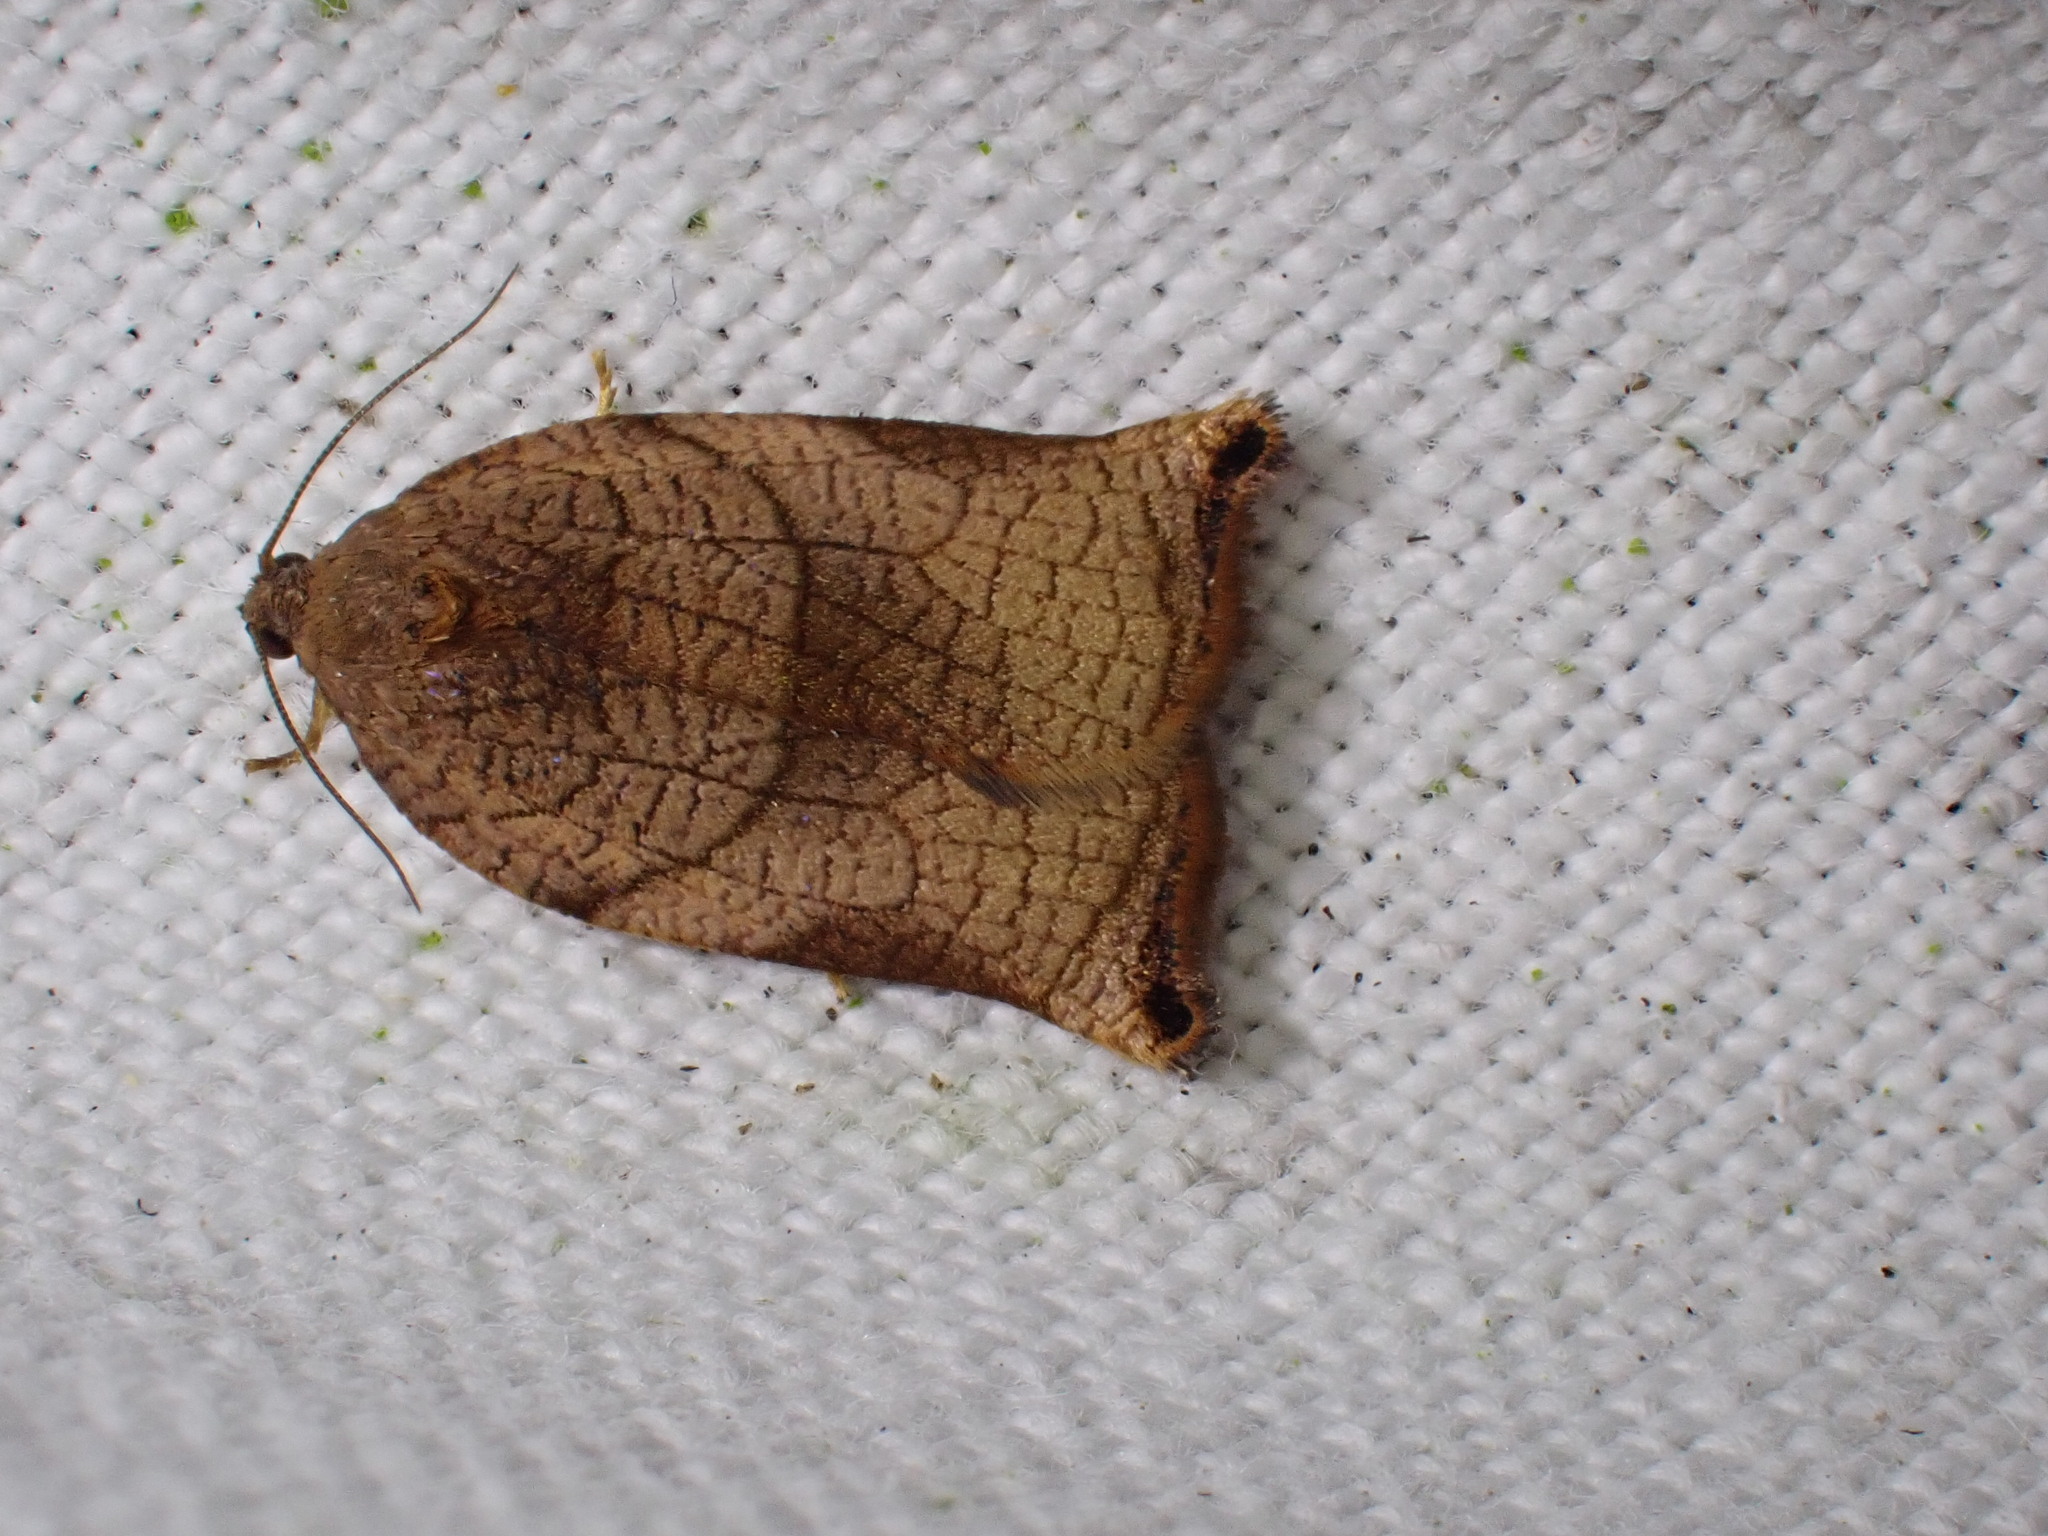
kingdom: Animalia
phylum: Arthropoda
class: Insecta
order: Lepidoptera
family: Tortricidae
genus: Archips
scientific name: Archips podana
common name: Large fruit-tree tortrix
